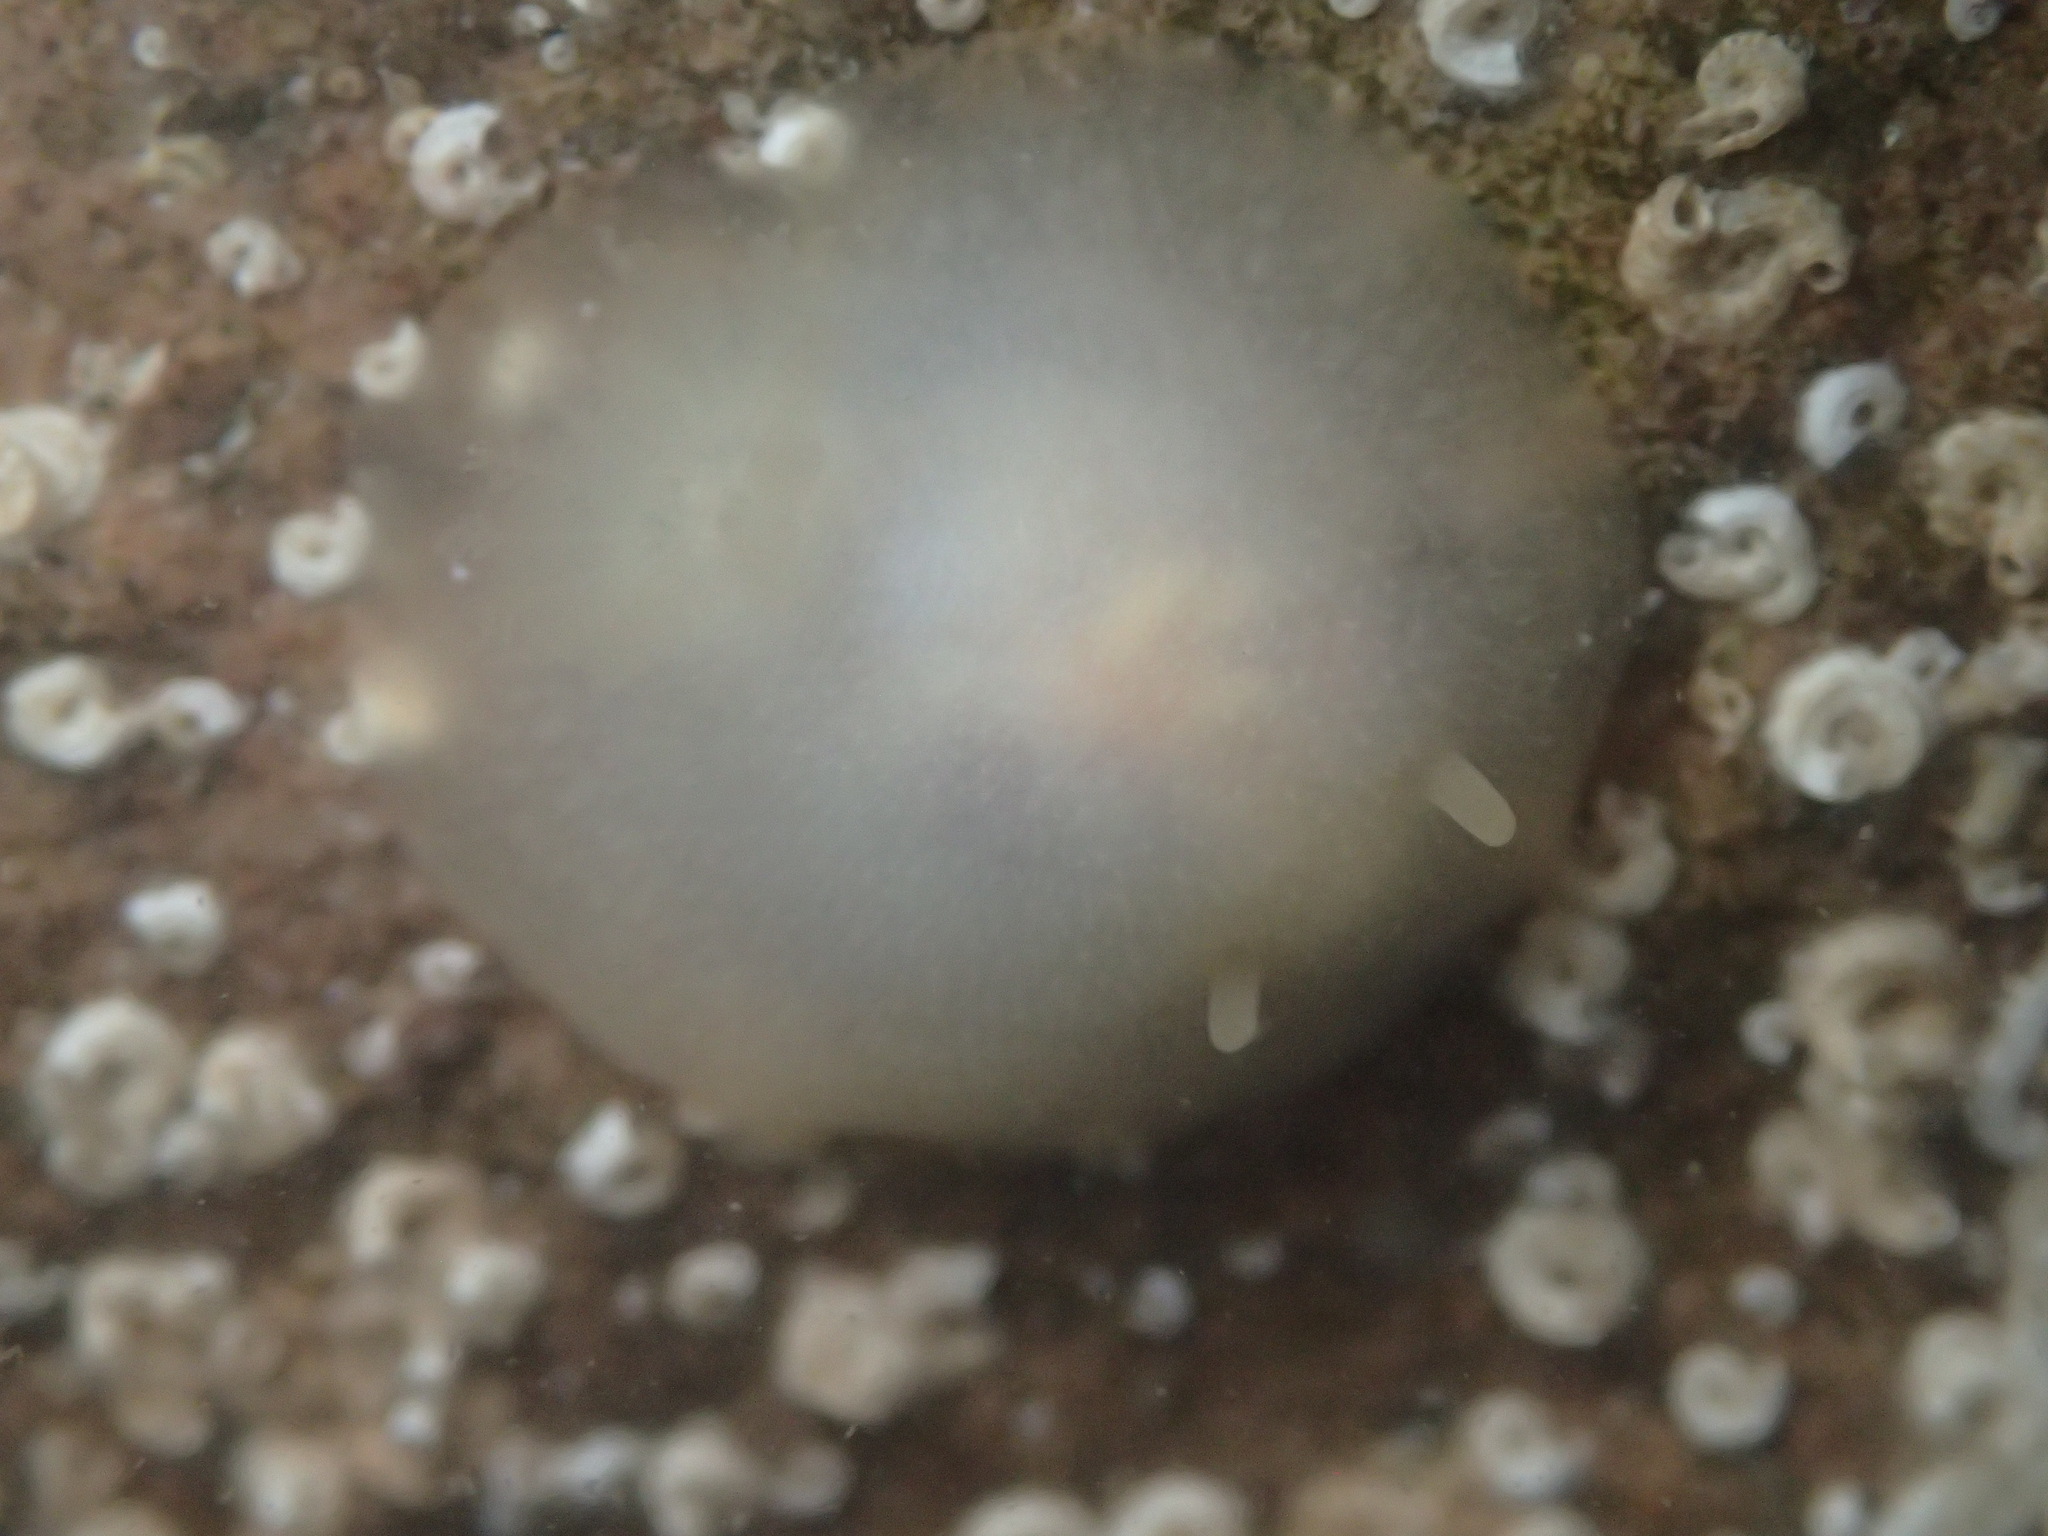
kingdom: Animalia
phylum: Mollusca
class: Gastropoda
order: Nudibranchia
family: Dorididae
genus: Conualevia
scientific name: Conualevia marcusi
